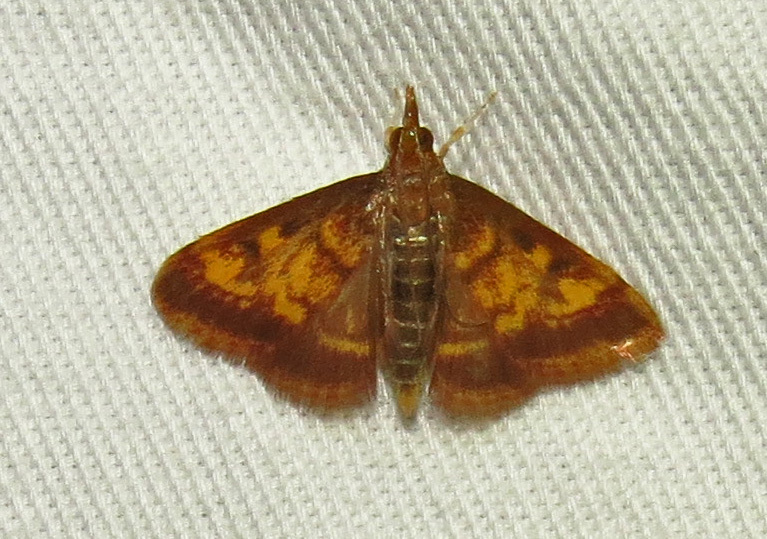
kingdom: Animalia
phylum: Arthropoda
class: Insecta
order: Lepidoptera
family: Crambidae
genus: Pyrausta
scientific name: Pyrausta acrionalis
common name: Mint-loving pyrausta moth
